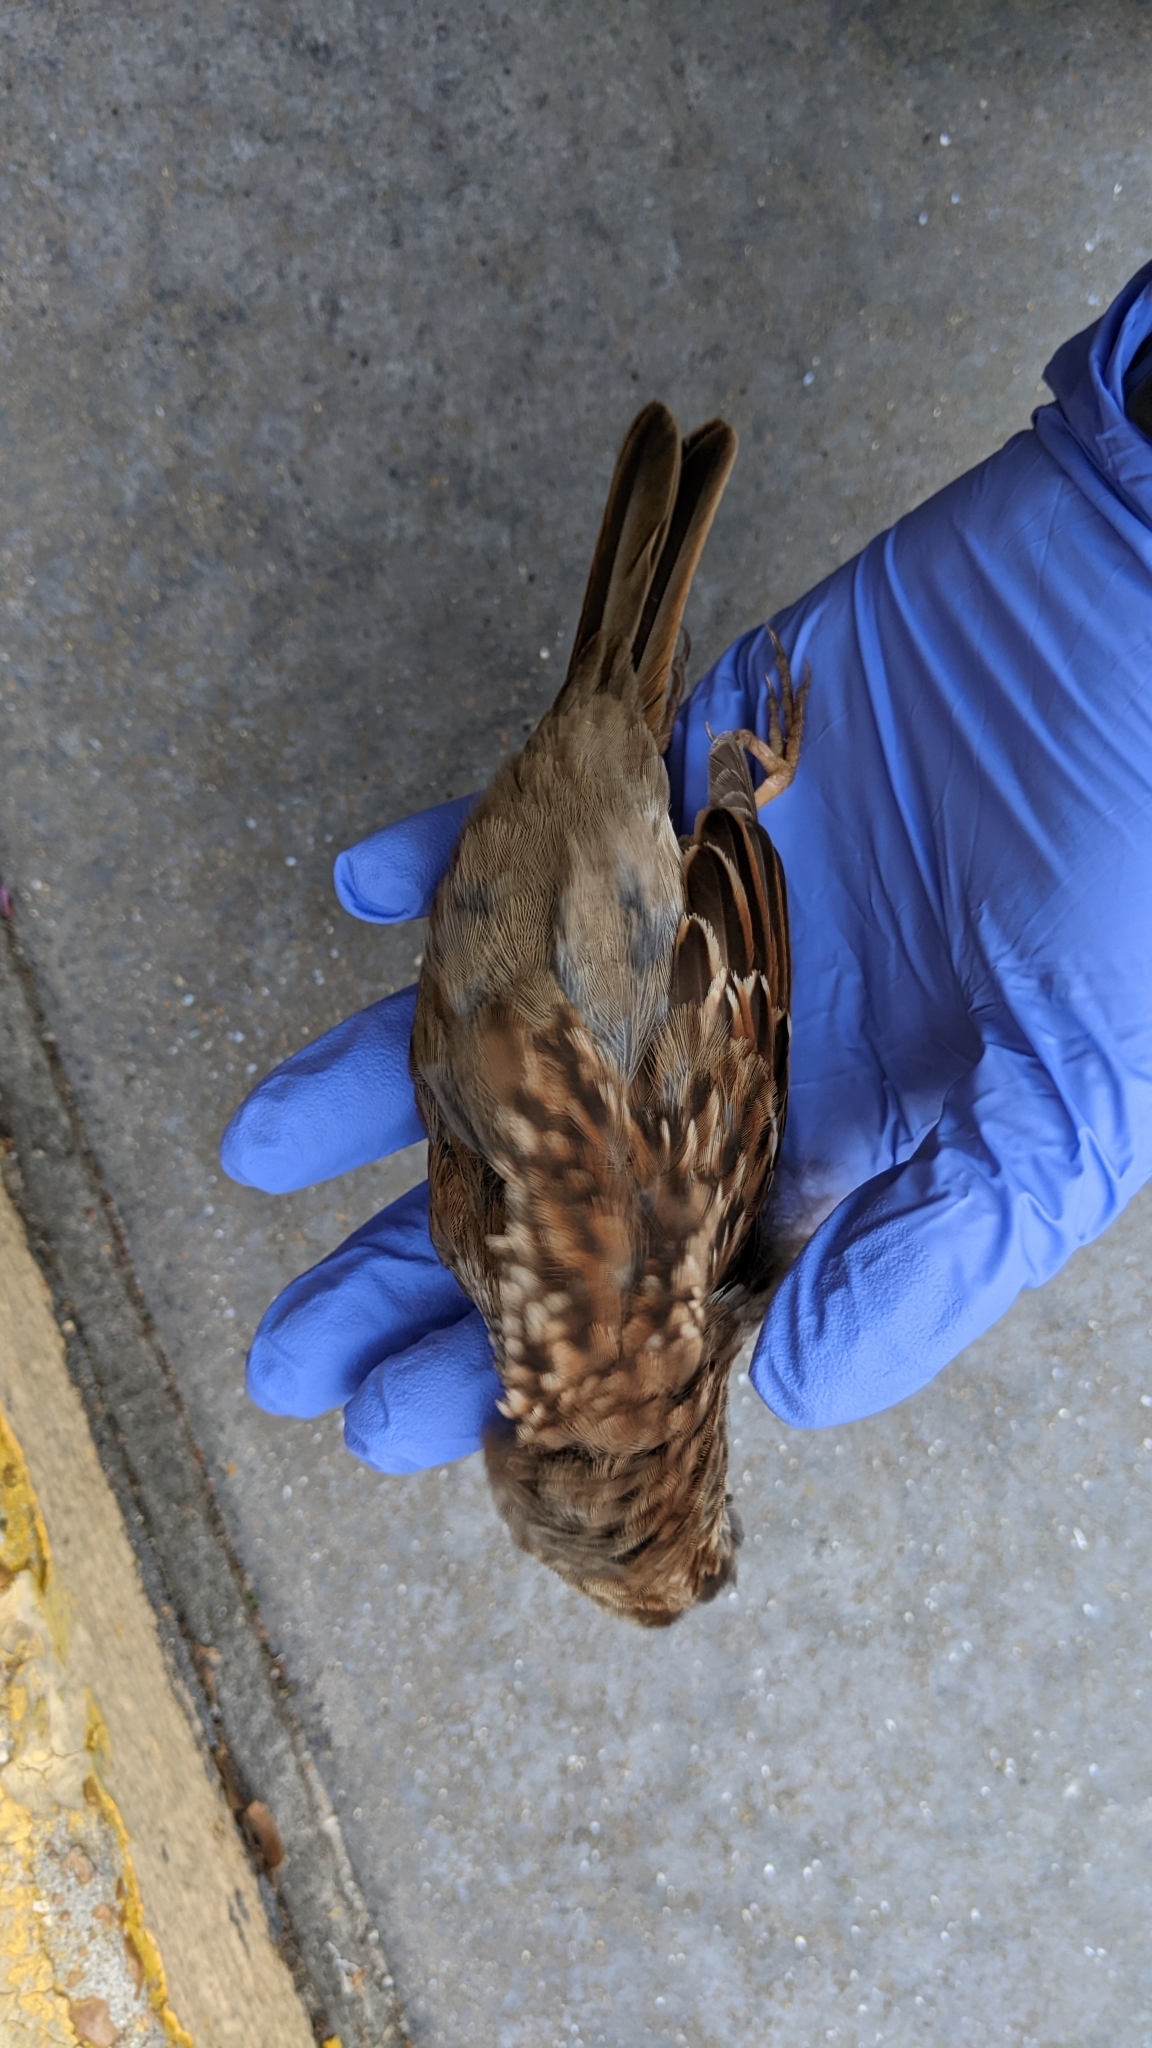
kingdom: Animalia
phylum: Chordata
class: Aves
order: Passeriformes
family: Passerellidae
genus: Melospiza
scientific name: Melospiza georgiana
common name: Swamp sparrow
